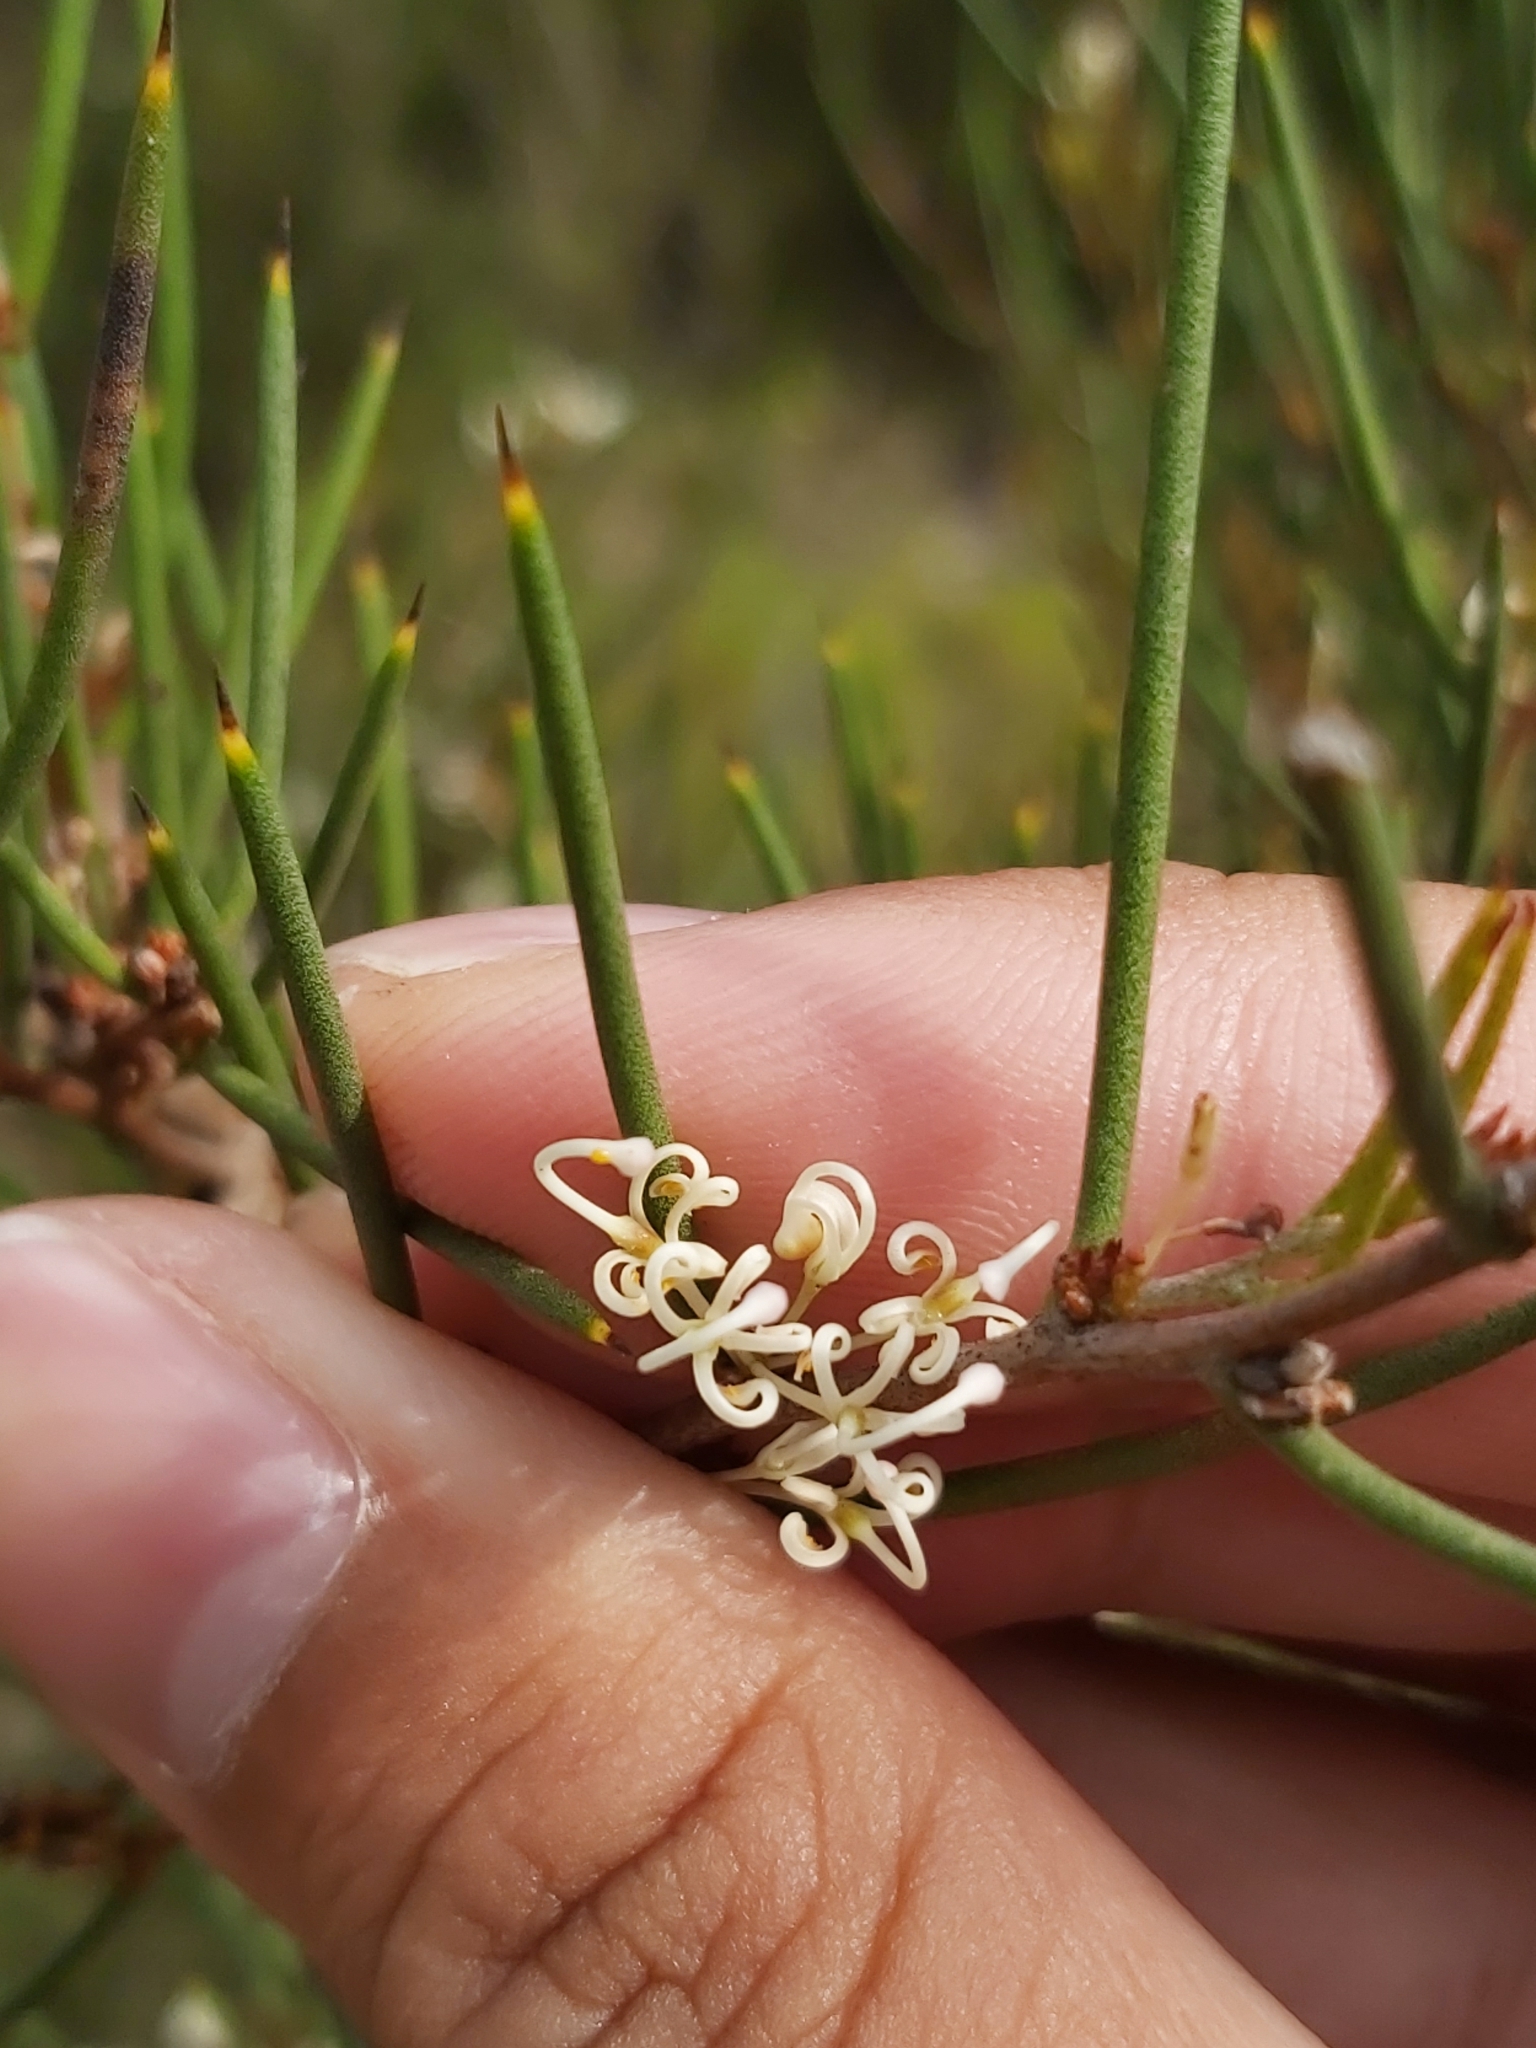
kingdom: Plantae
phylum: Tracheophyta
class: Magnoliopsida
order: Proteales
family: Proteaceae
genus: Hakea
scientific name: Hakea microcarpa
